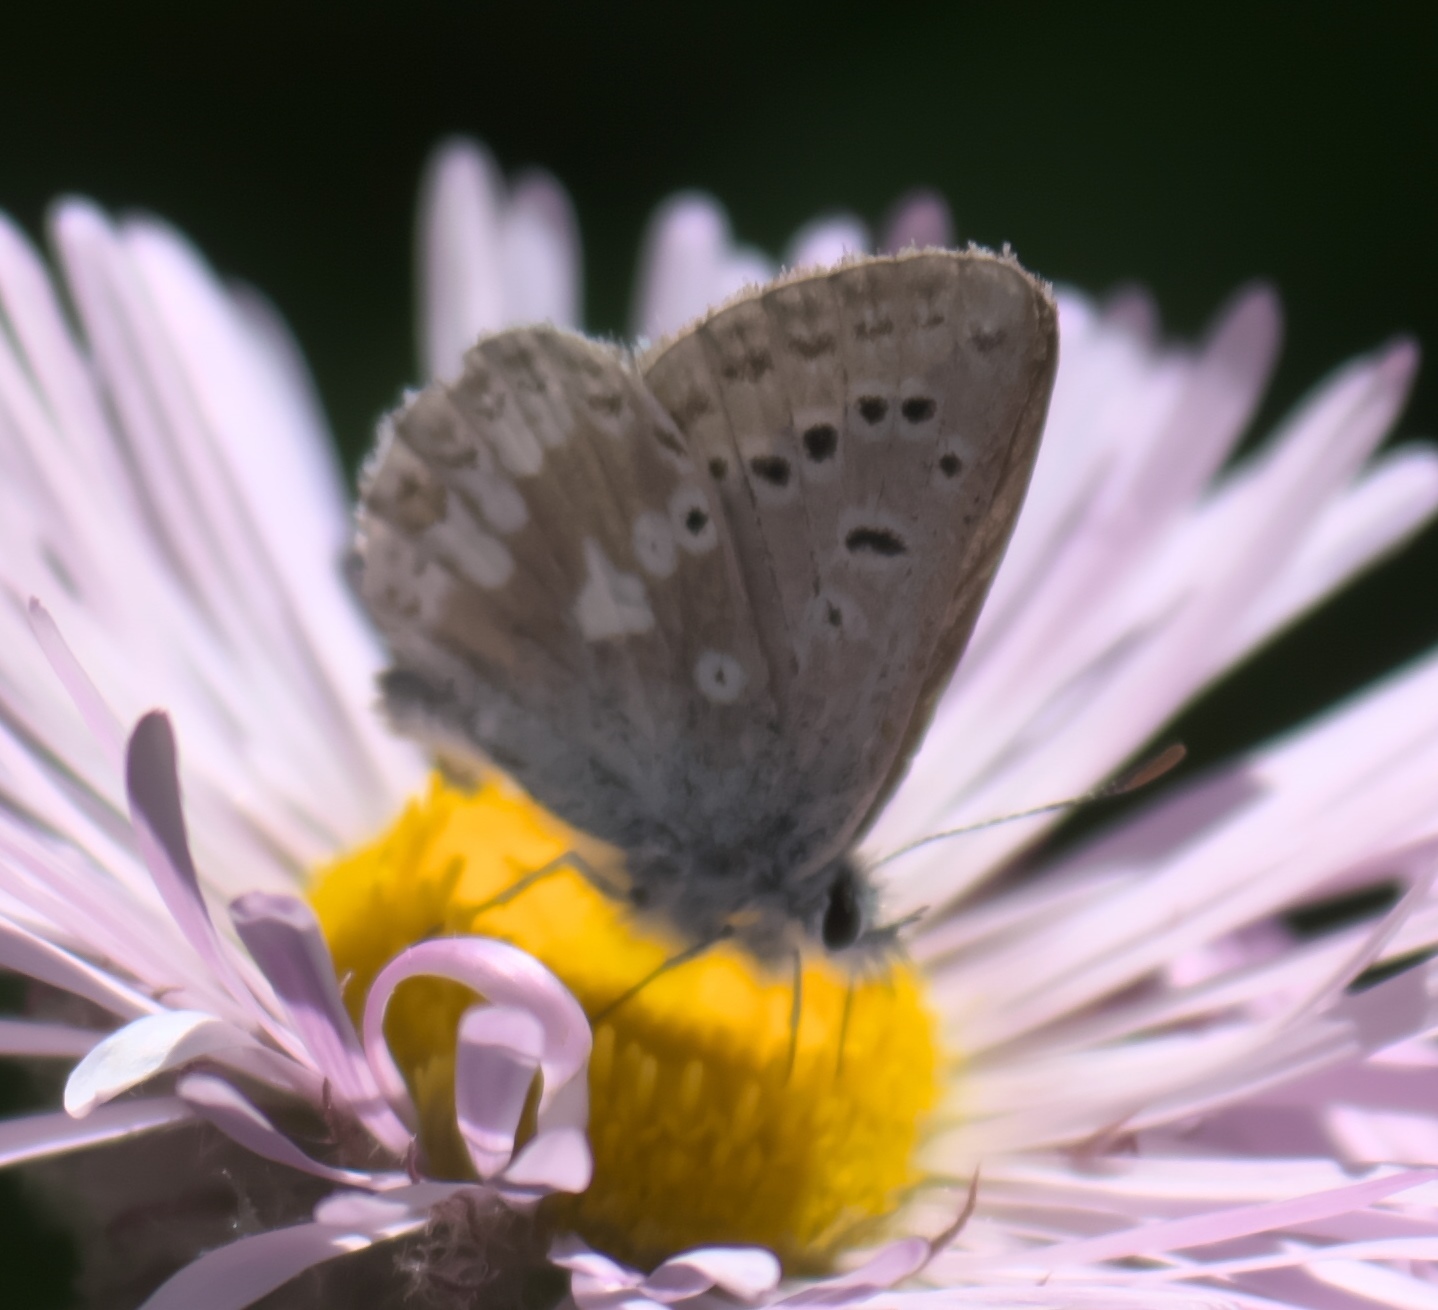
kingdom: Animalia
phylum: Arthropoda
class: Insecta
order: Lepidoptera
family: Lycaenidae
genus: Agriades
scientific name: Agriades glandon
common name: Glandon blue
